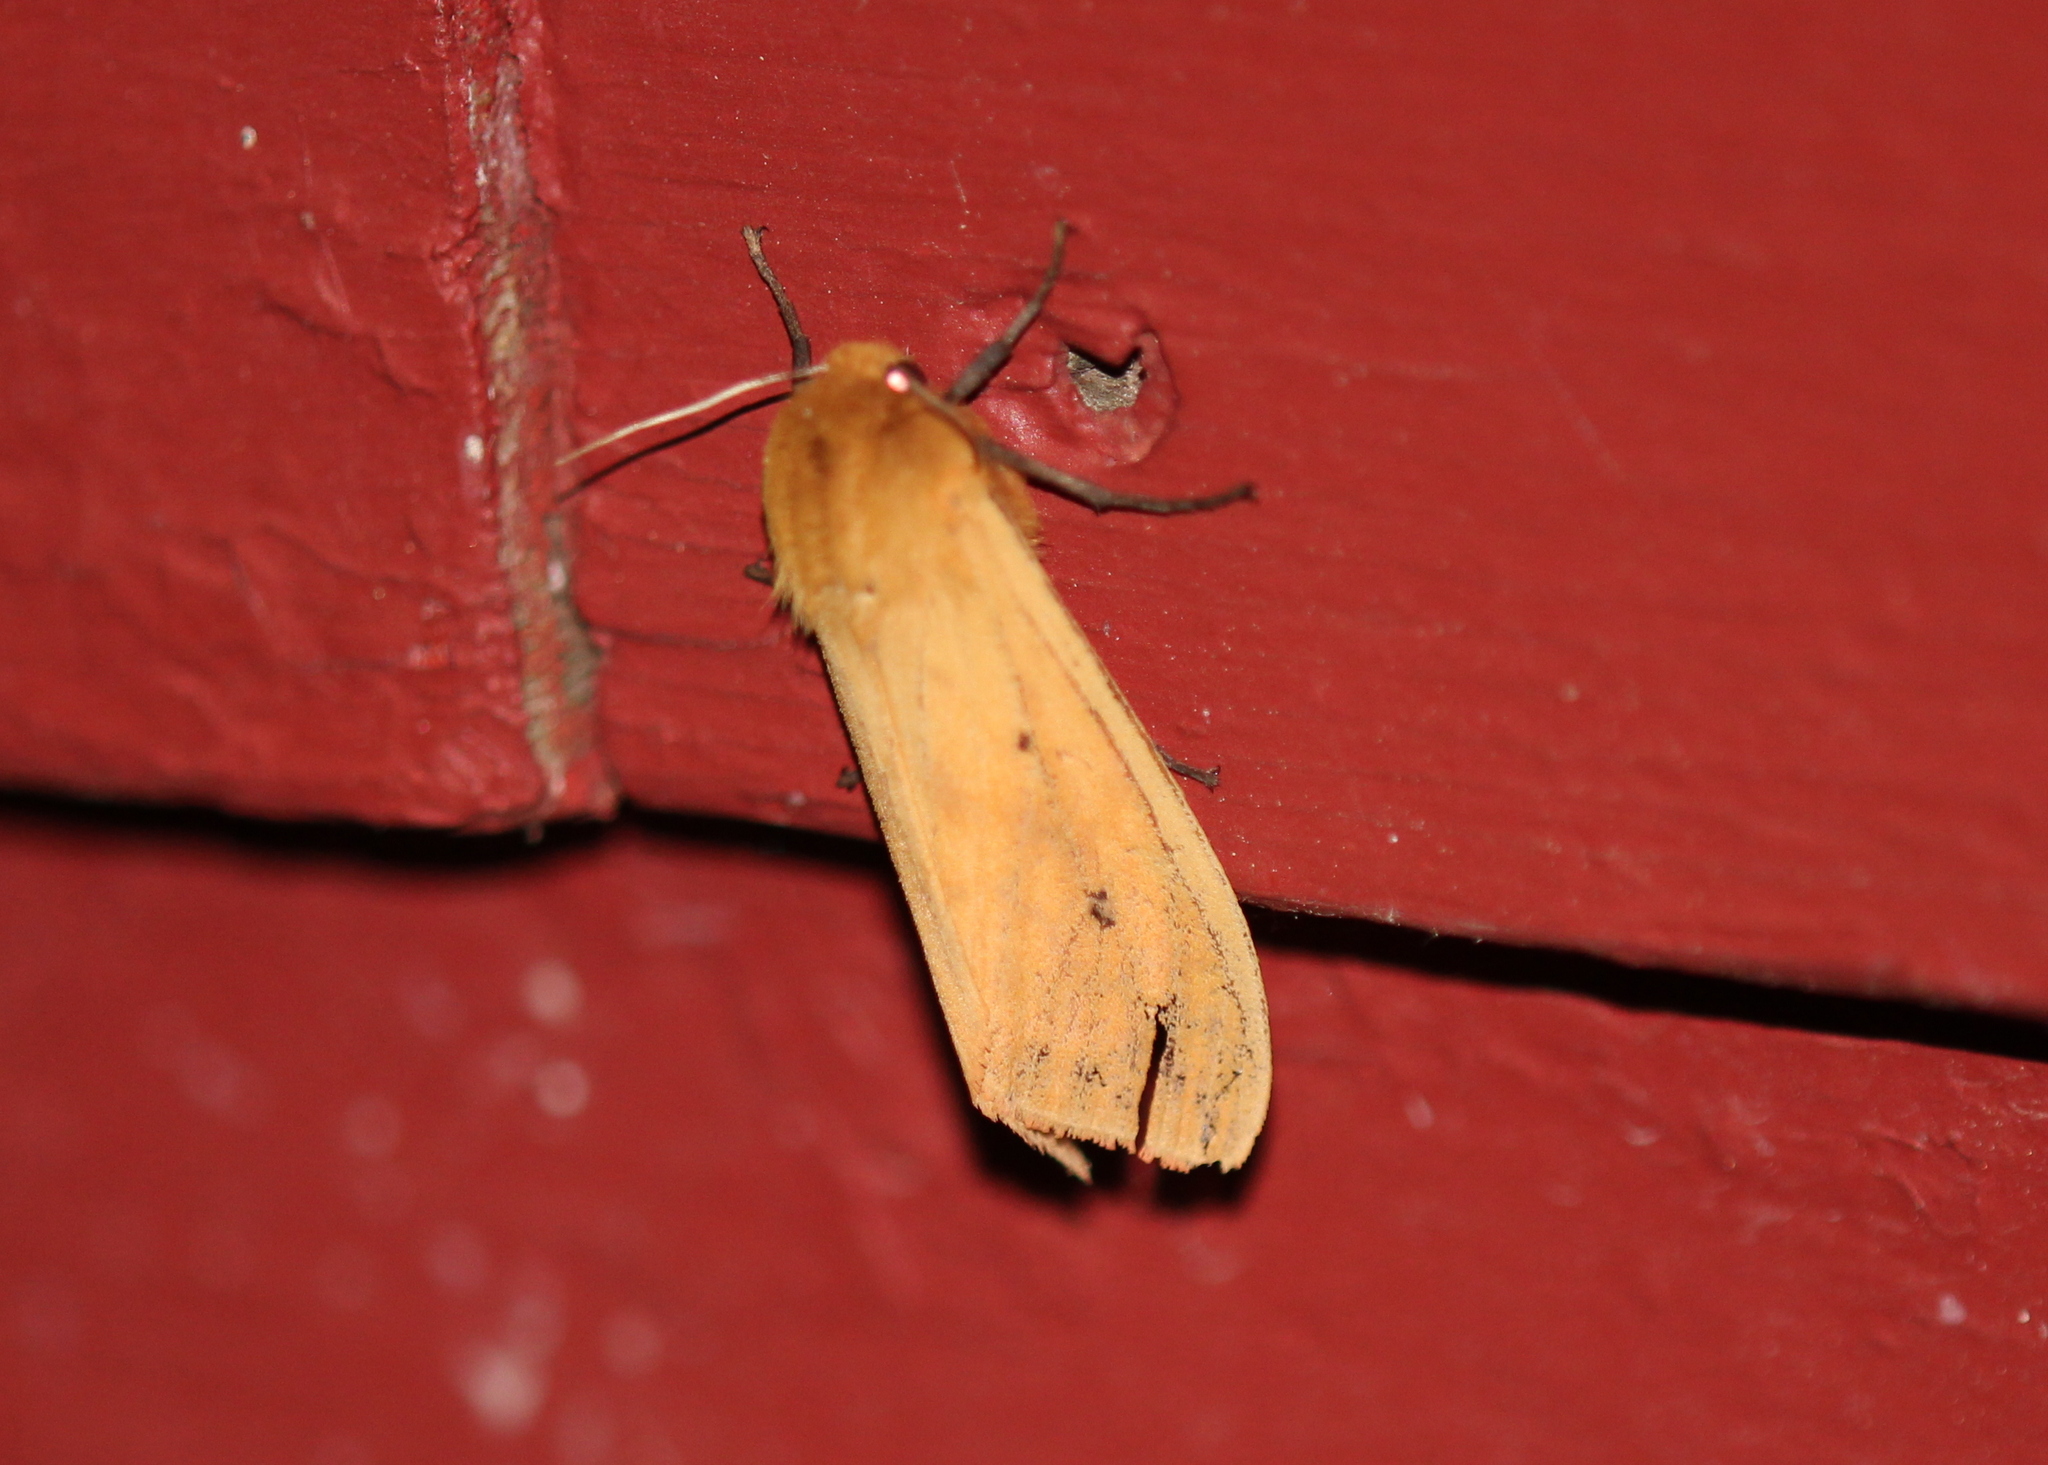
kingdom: Animalia
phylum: Arthropoda
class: Insecta
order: Lepidoptera
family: Erebidae
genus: Pyrrharctia
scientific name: Pyrrharctia isabella
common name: Isabella tiger moth
